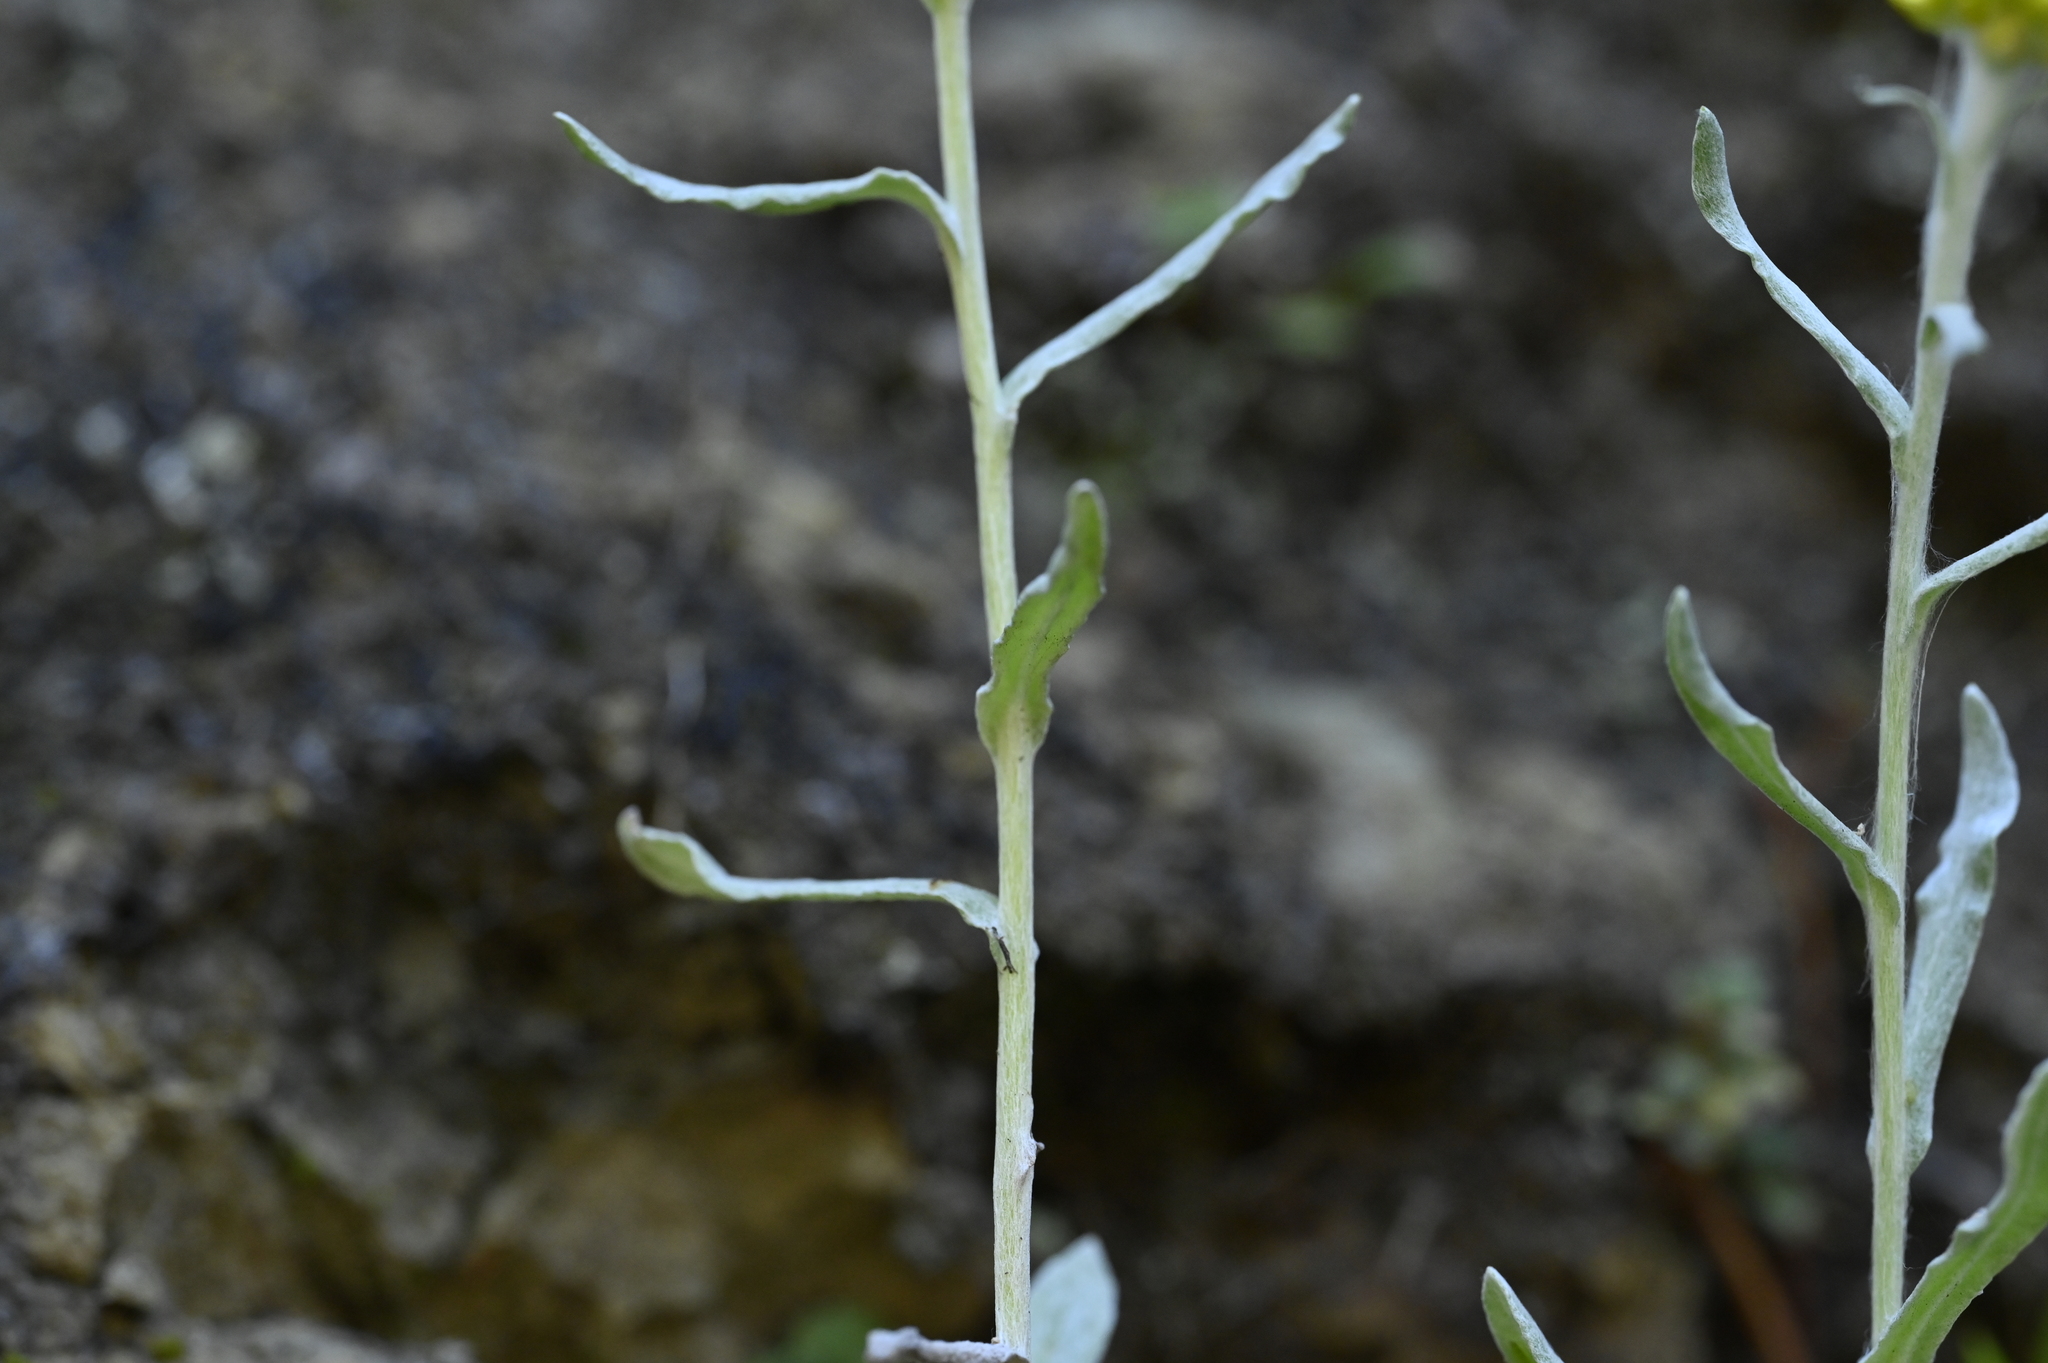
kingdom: Plantae
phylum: Tracheophyta
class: Magnoliopsida
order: Asterales
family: Asteraceae
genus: Pseudognaphalium
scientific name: Pseudognaphalium affine
